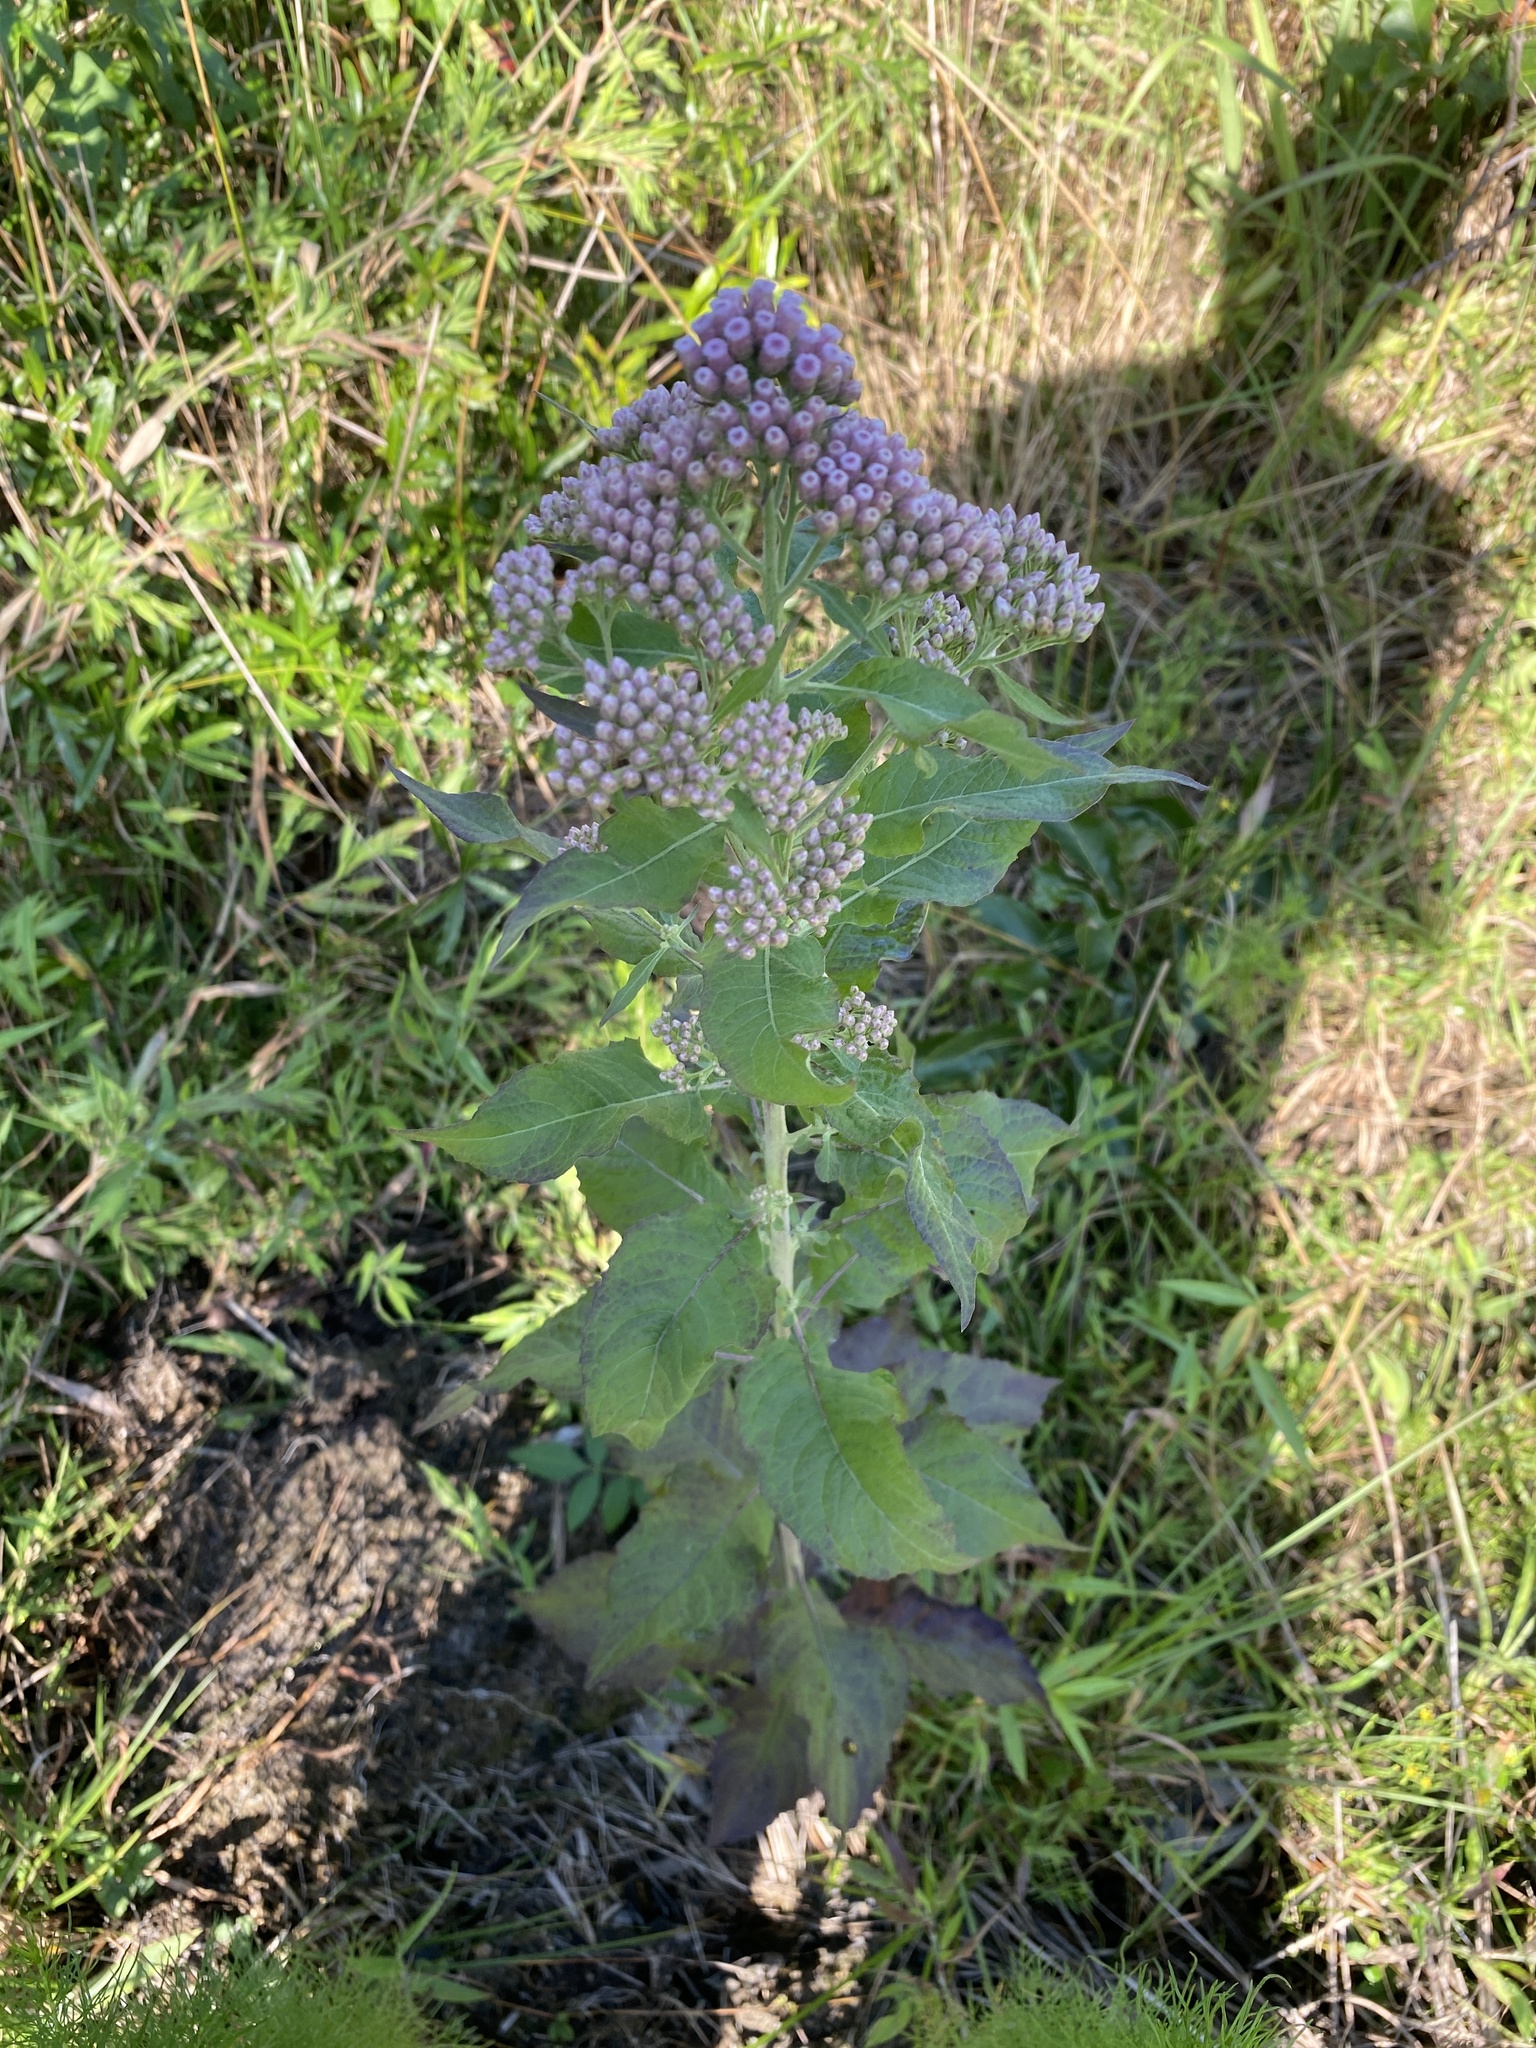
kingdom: Plantae
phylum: Tracheophyta
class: Magnoliopsida
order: Asterales
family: Asteraceae
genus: Pluchea
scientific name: Pluchea camphorata
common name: Camphor pluchea
